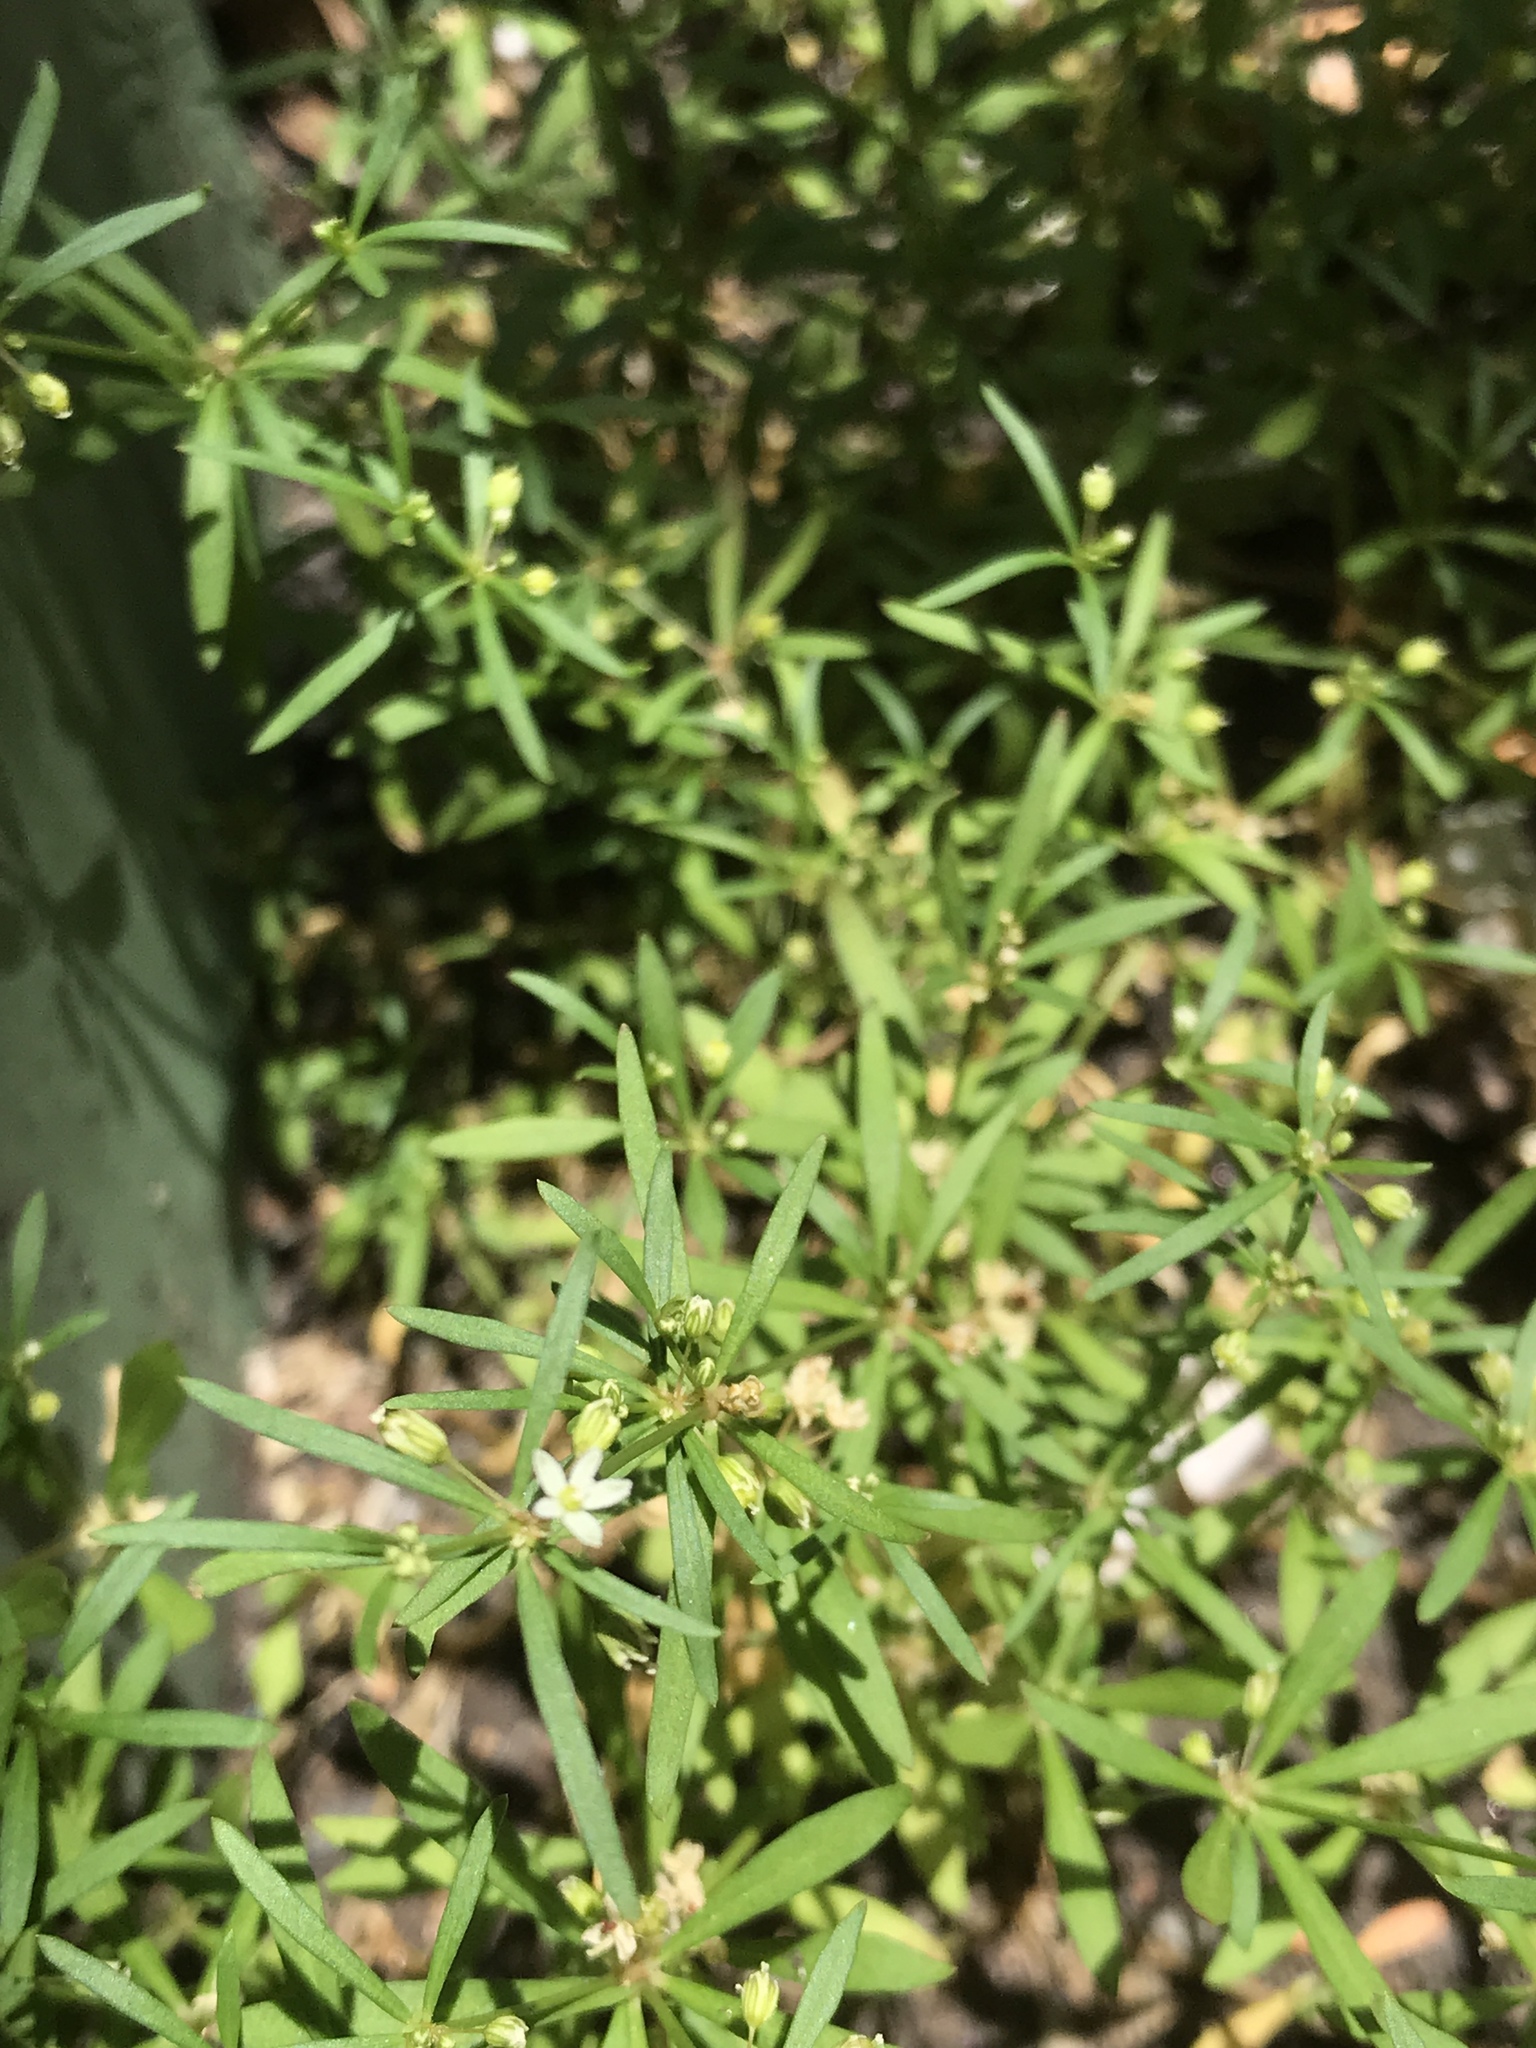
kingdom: Plantae
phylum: Tracheophyta
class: Magnoliopsida
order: Caryophyllales
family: Molluginaceae
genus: Mollugo
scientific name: Mollugo verticillata
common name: Green carpetweed
